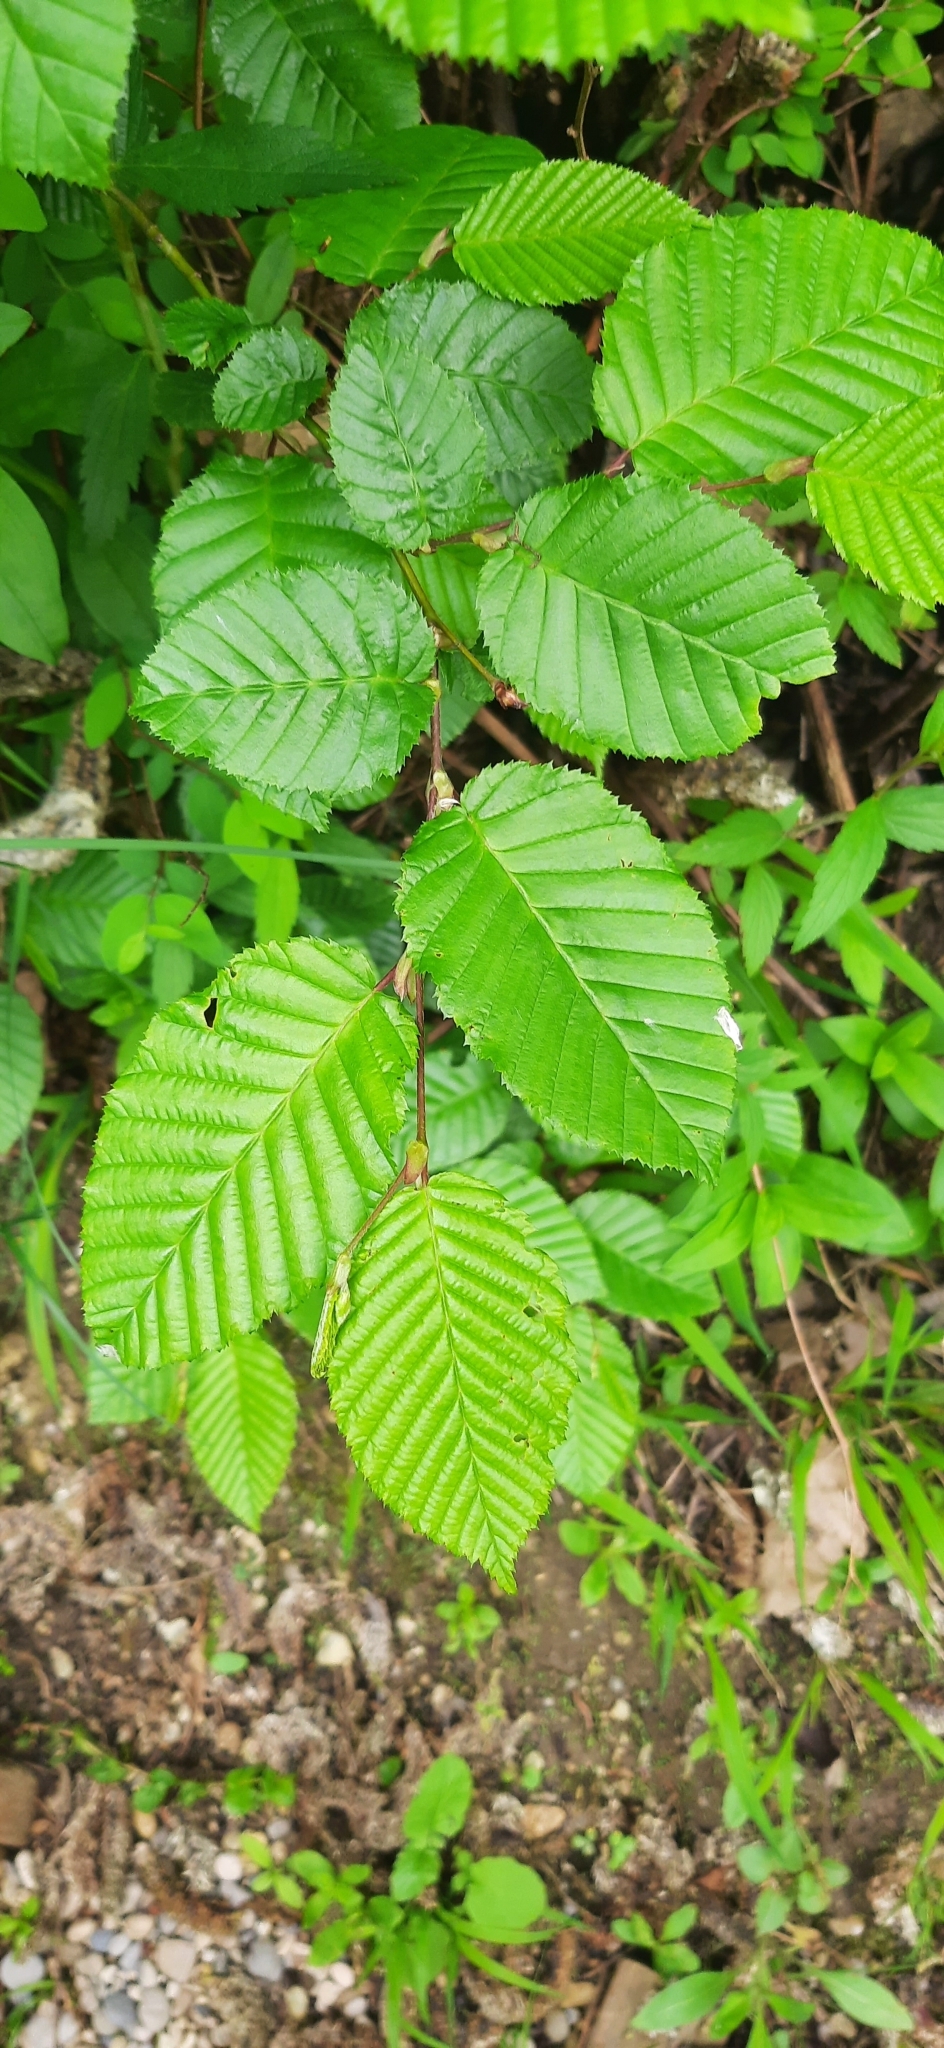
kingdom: Plantae
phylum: Tracheophyta
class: Magnoliopsida
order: Fagales
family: Betulaceae
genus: Carpinus
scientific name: Carpinus betulus
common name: Hornbeam
